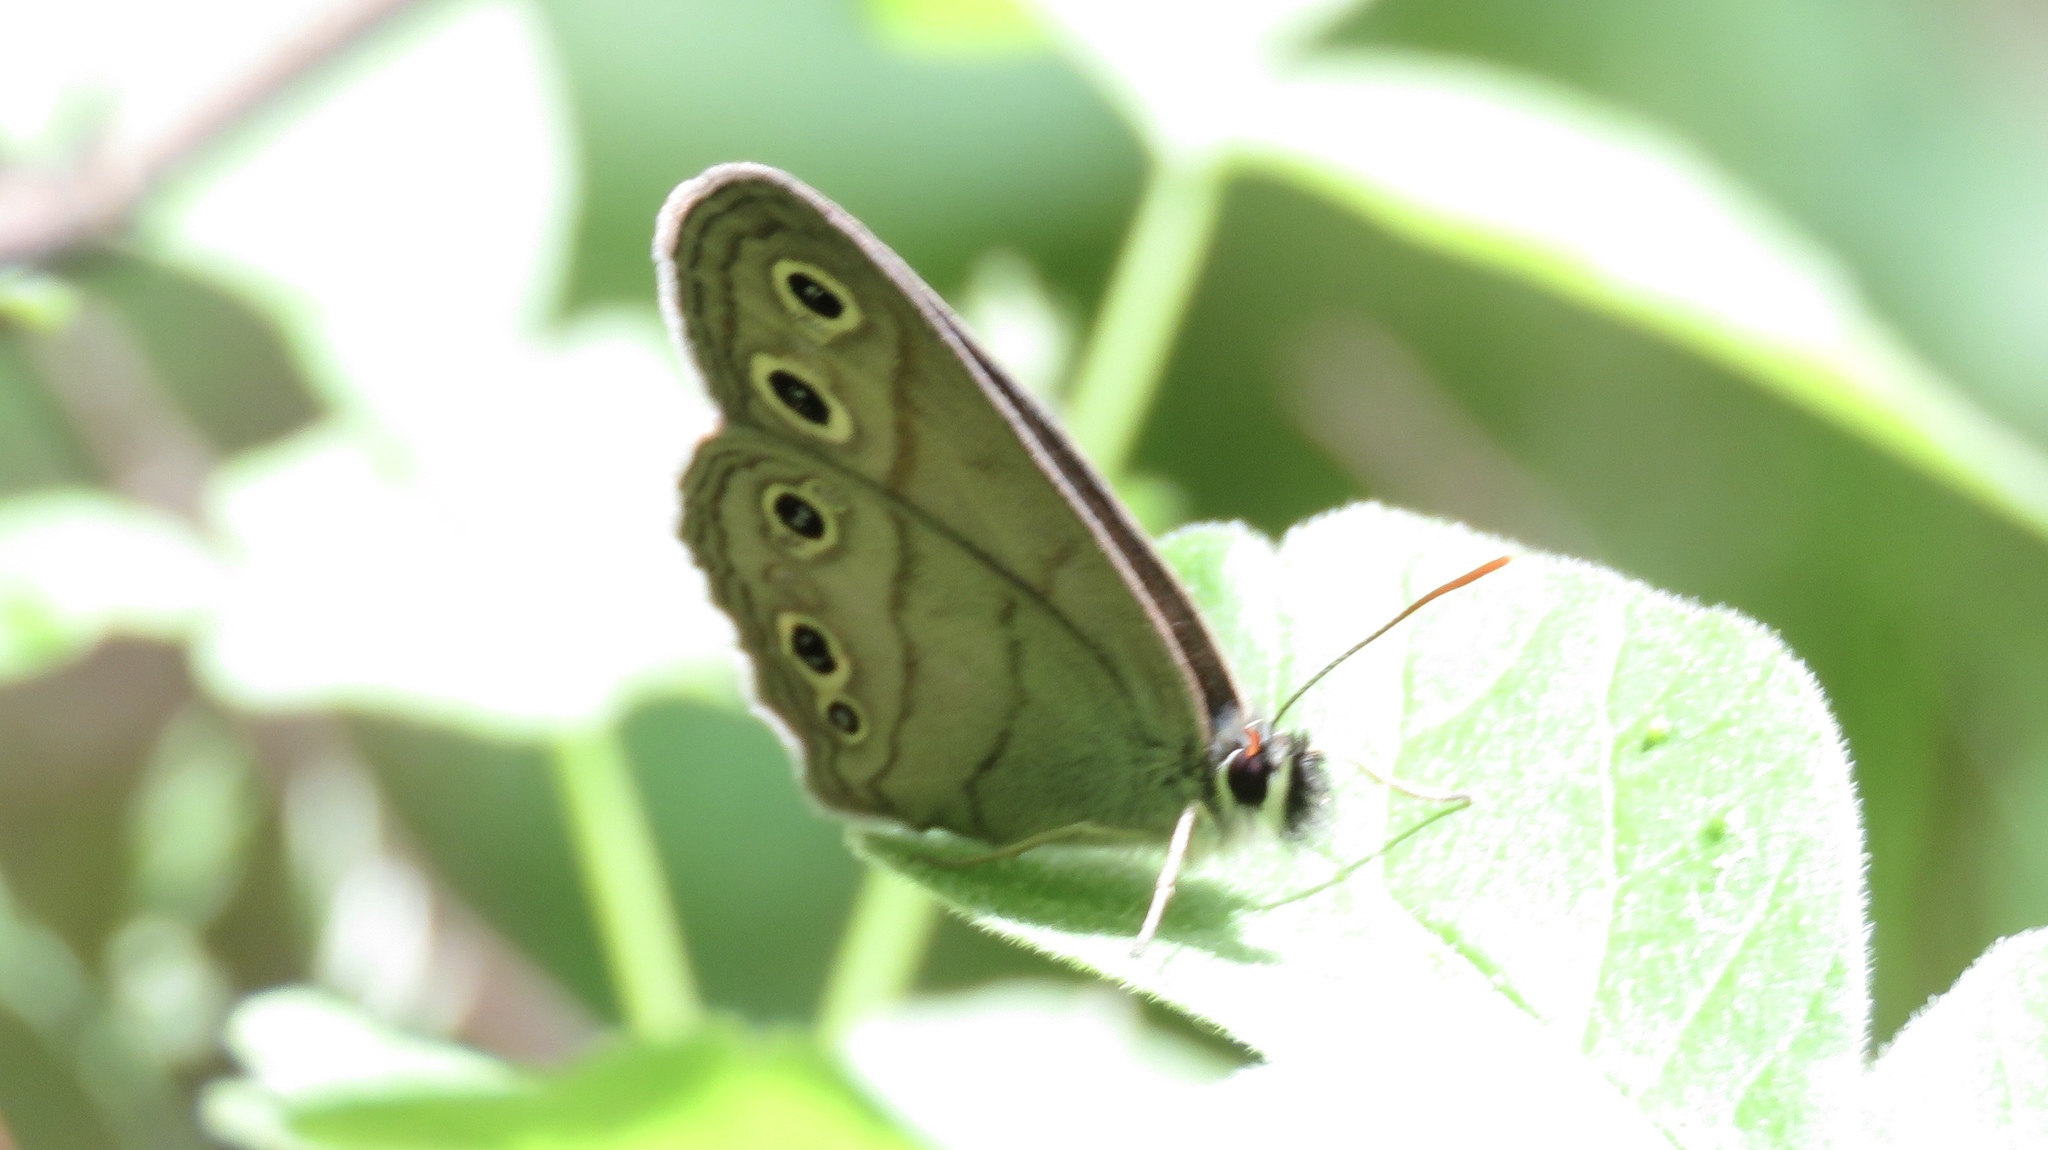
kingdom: Animalia
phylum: Arthropoda
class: Insecta
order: Lepidoptera
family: Nymphalidae
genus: Euptychia
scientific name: Euptychia cymela
